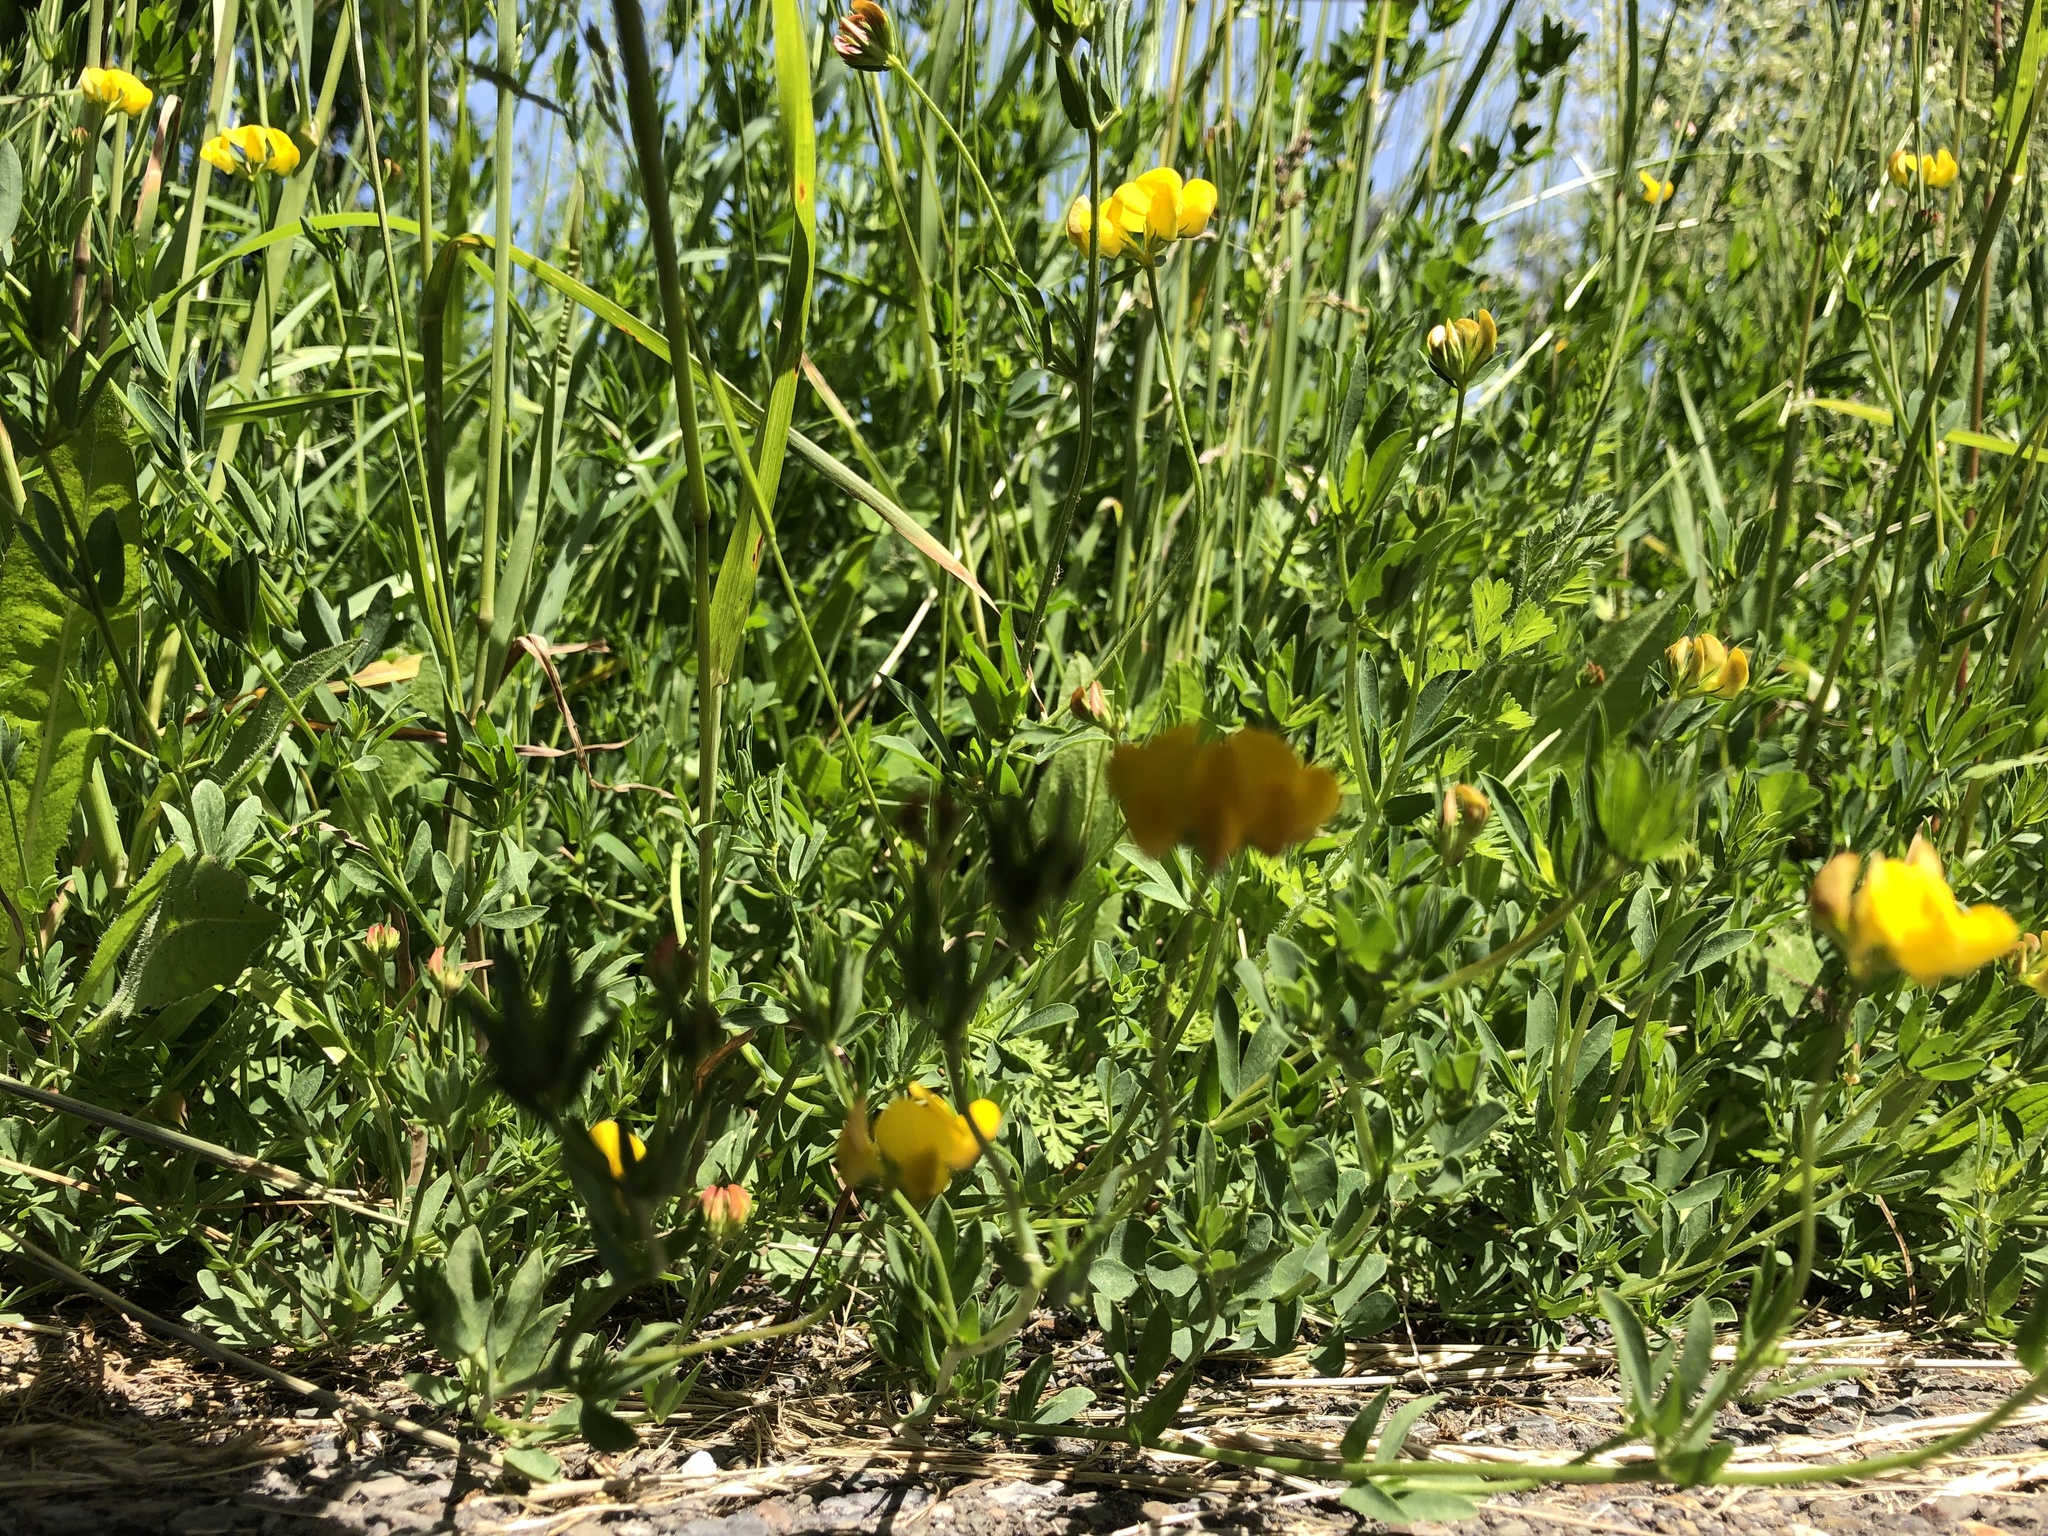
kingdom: Plantae
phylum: Tracheophyta
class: Magnoliopsida
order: Fabales
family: Fabaceae
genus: Lotus
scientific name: Lotus corniculatus
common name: Common bird's-foot-trefoil
